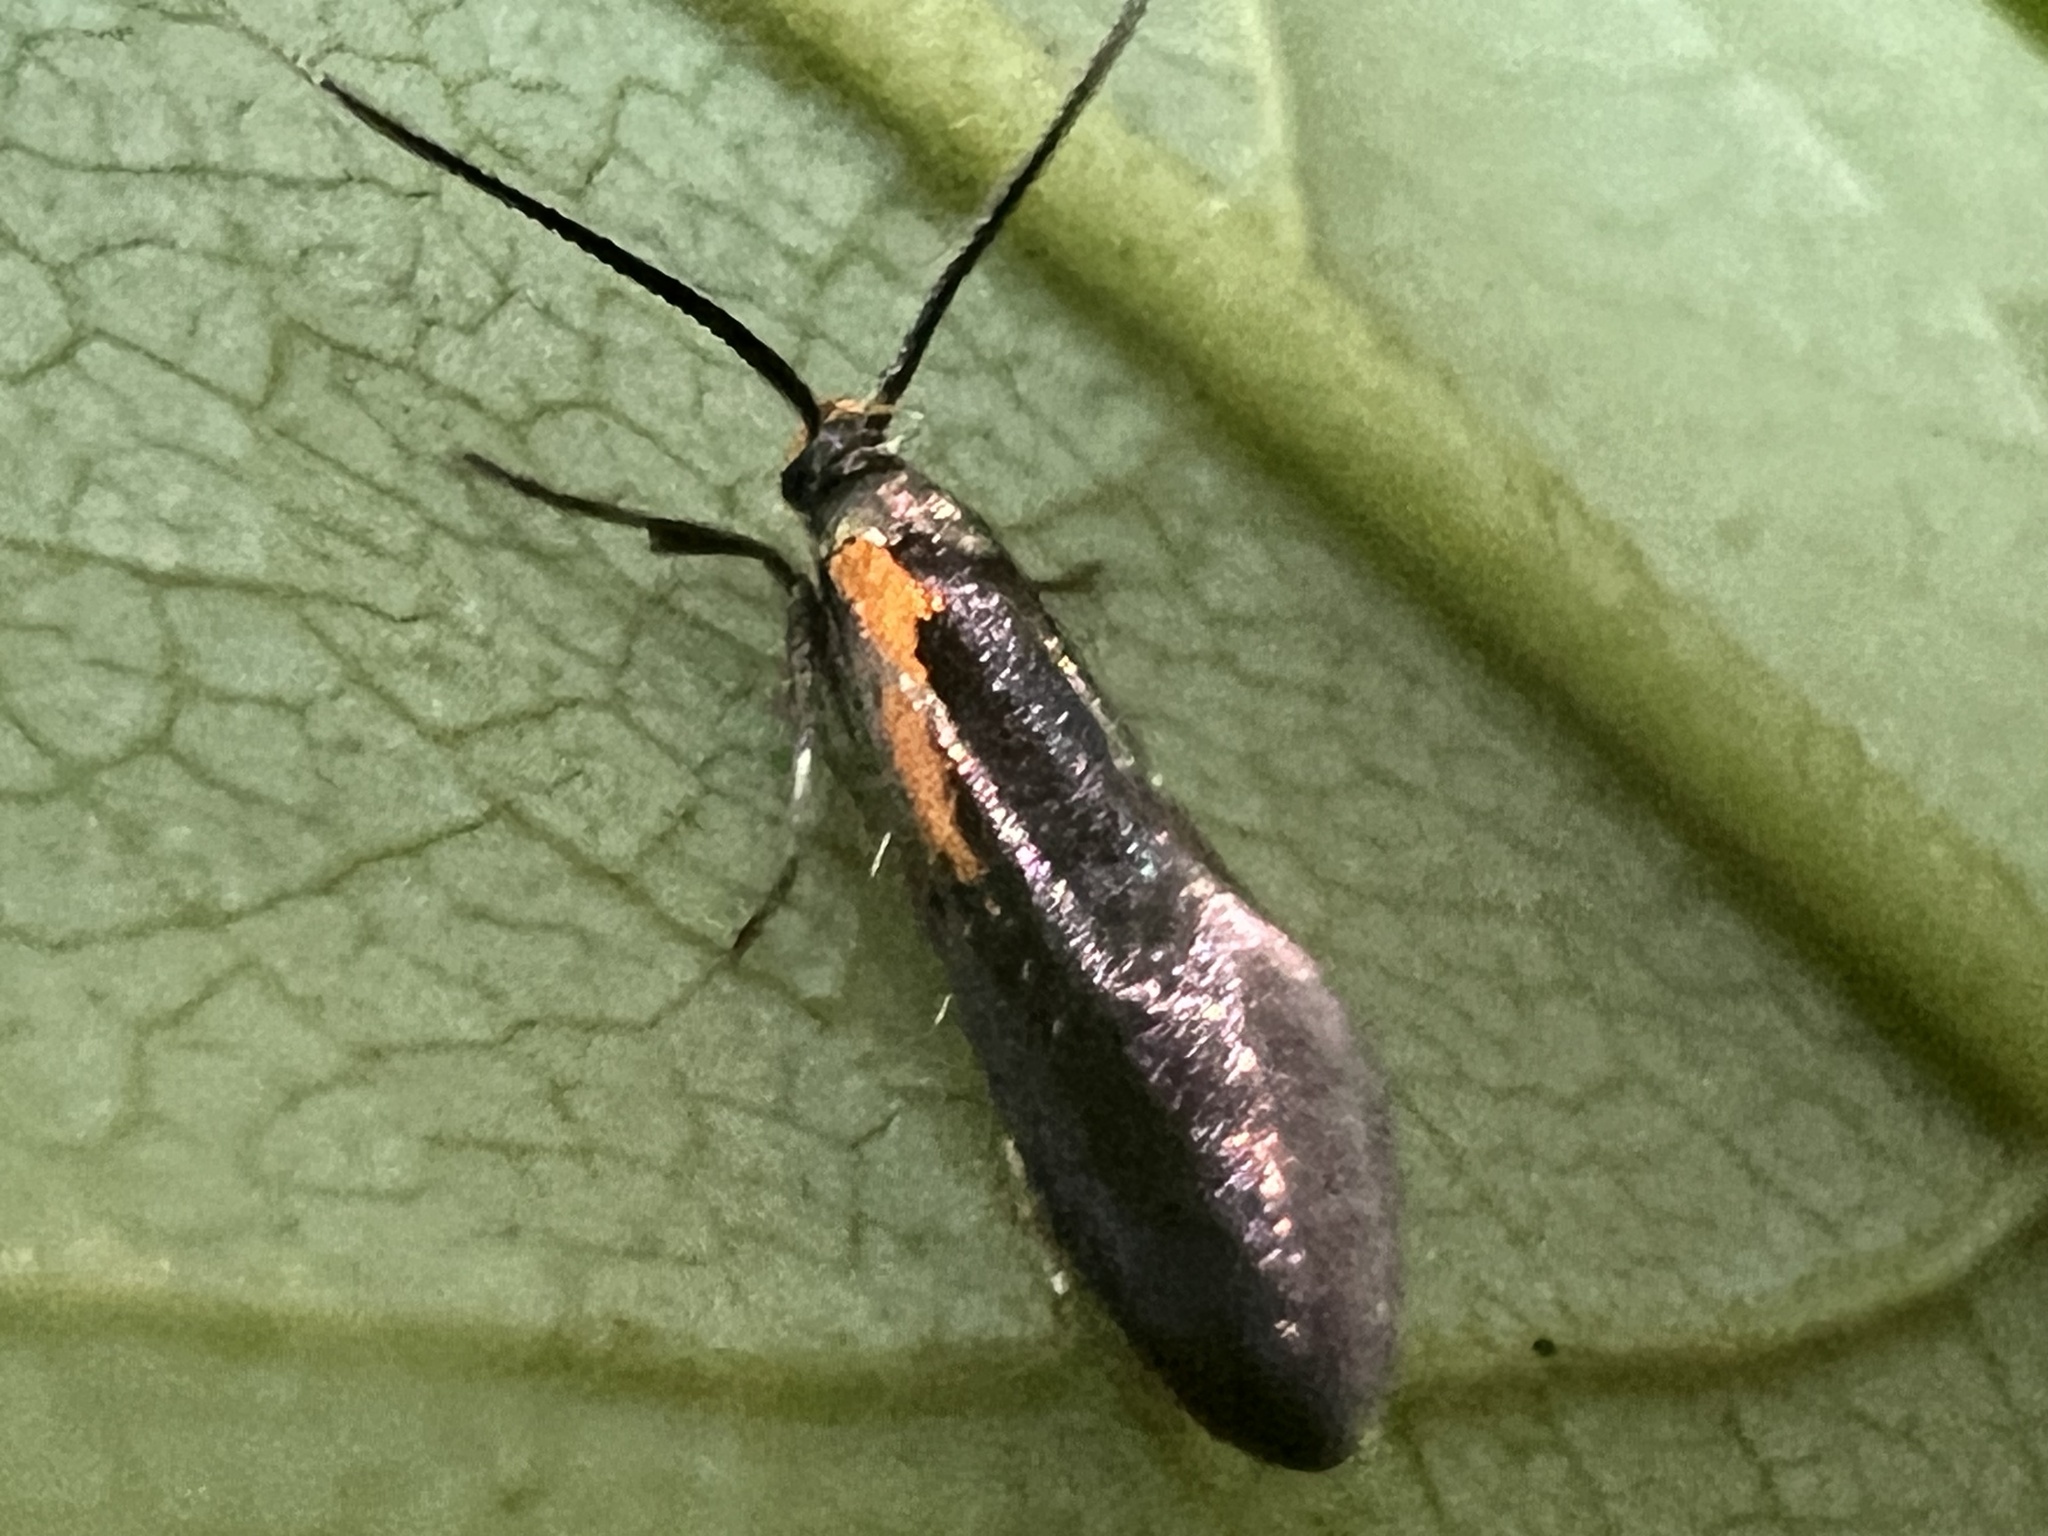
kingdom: Animalia
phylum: Arthropoda
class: Insecta
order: Lepidoptera
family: Oecophoridae
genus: Mathildana
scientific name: Mathildana newmanella
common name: Newman's mathildana moth
